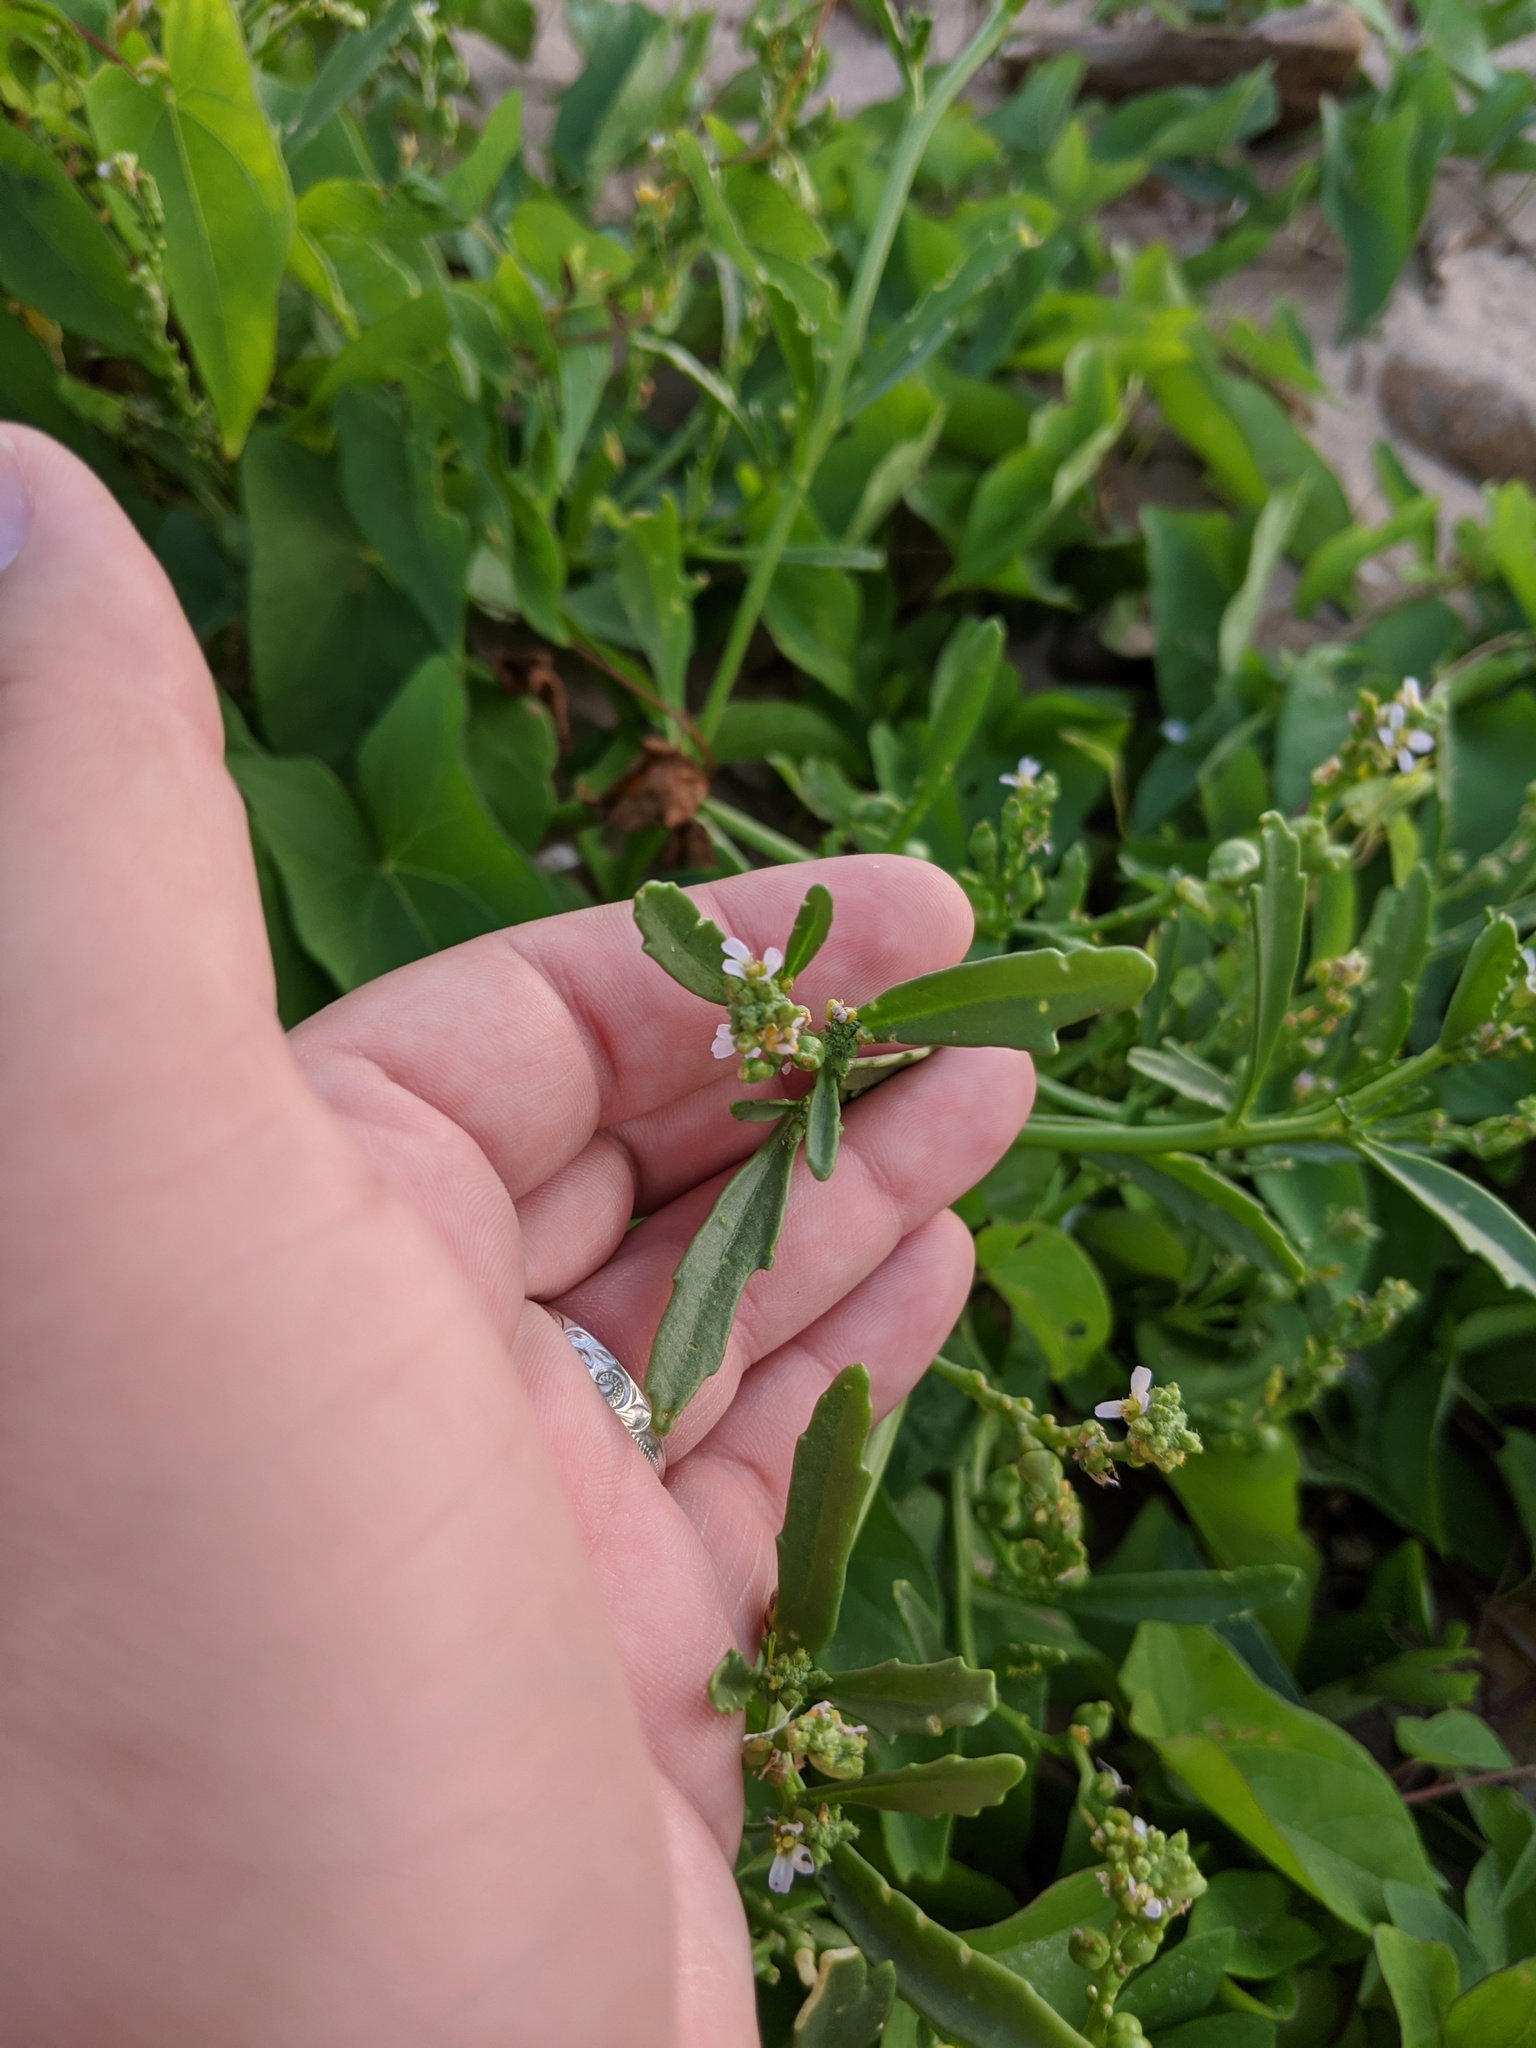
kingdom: Plantae
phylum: Tracheophyta
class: Magnoliopsida
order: Brassicales
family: Brassicaceae
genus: Cakile
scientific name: Cakile edentula
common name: American sea rocket
